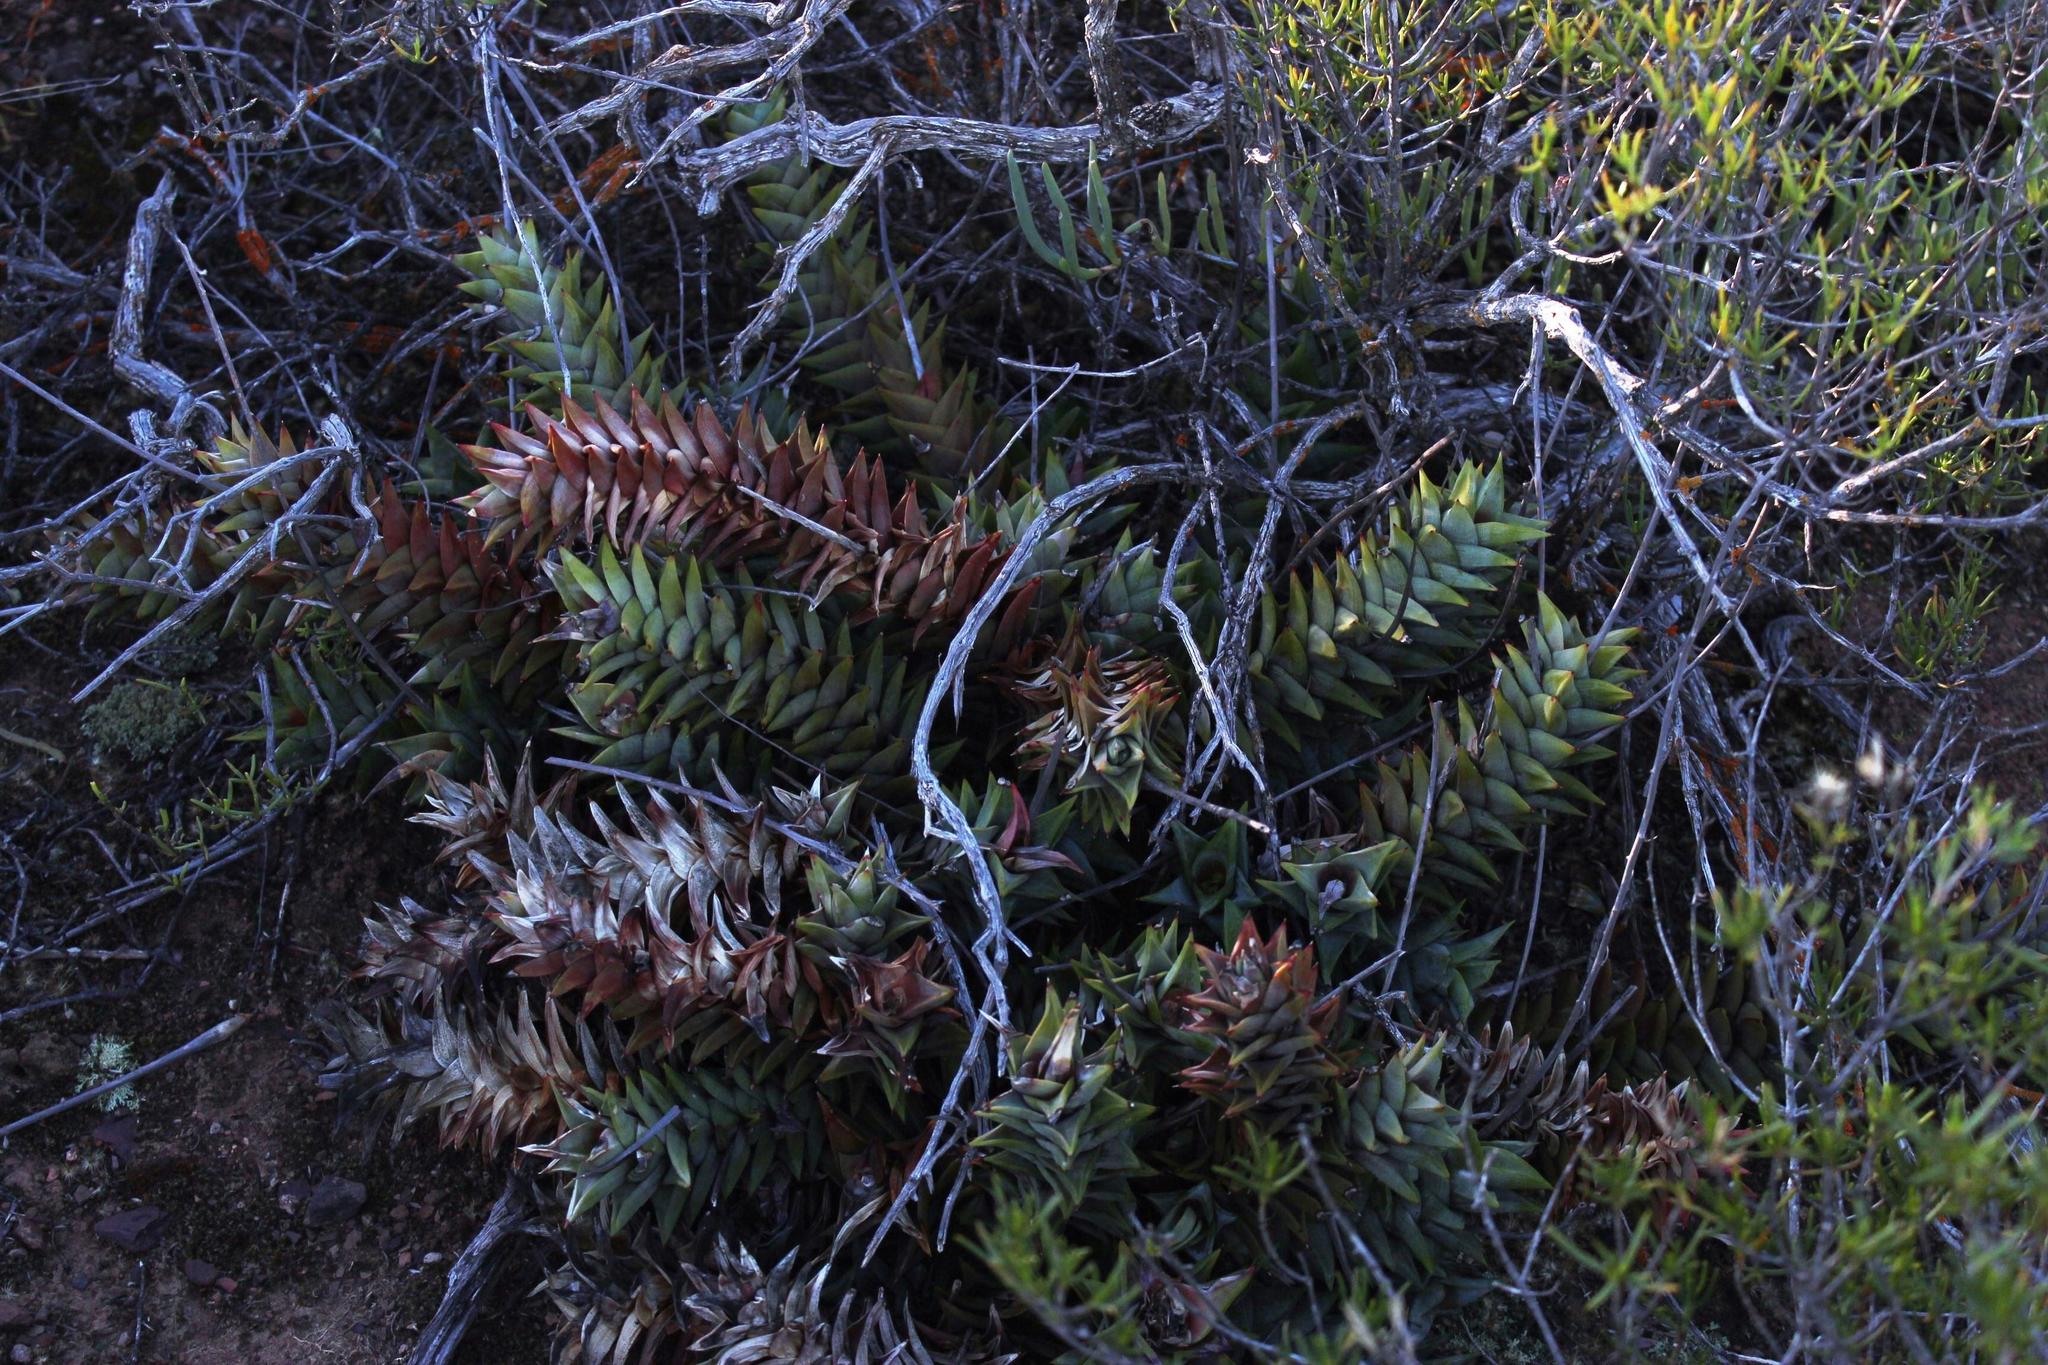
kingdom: Plantae
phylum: Tracheophyta
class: Liliopsida
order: Asparagales
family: Asphodelaceae
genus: Astroloba
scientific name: Astroloba rubriflora
